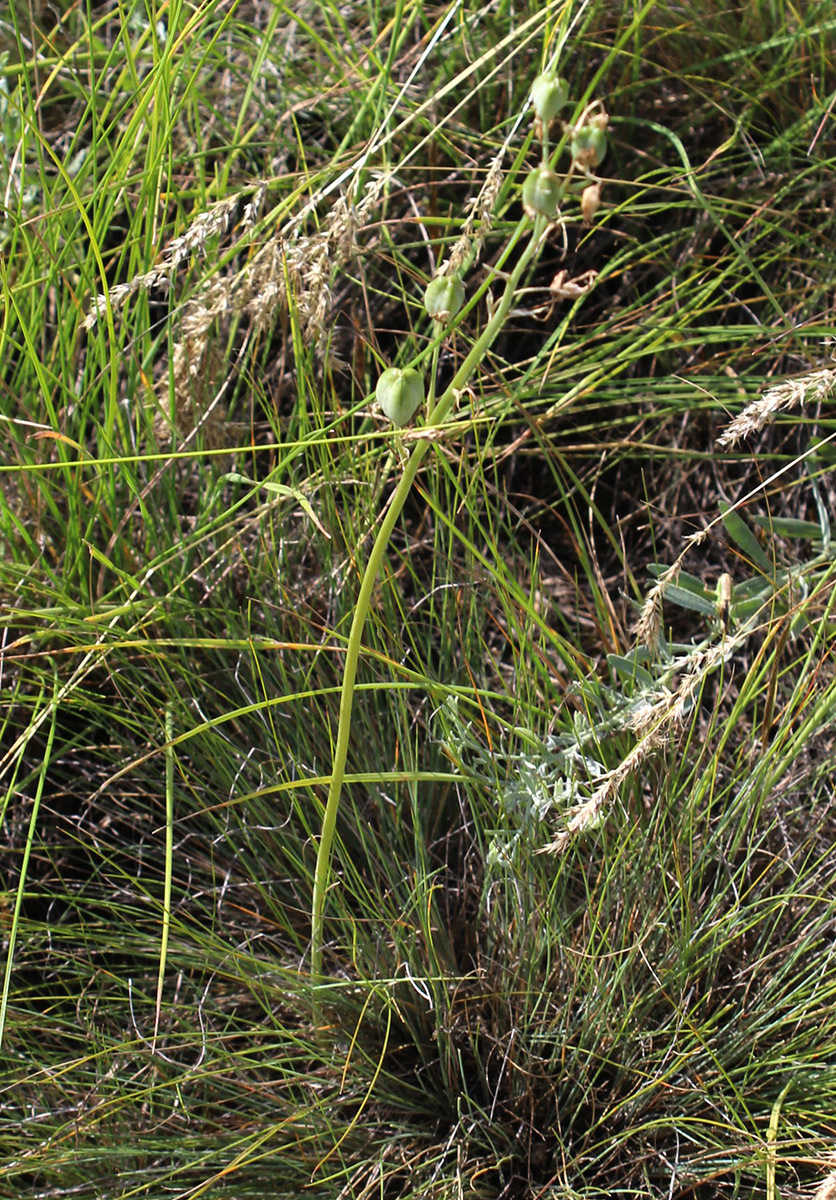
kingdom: Plantae
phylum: Tracheophyta
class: Liliopsida
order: Asparagales
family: Asparagaceae
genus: Ornithogalum
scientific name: Ornithogalum fischerianum
